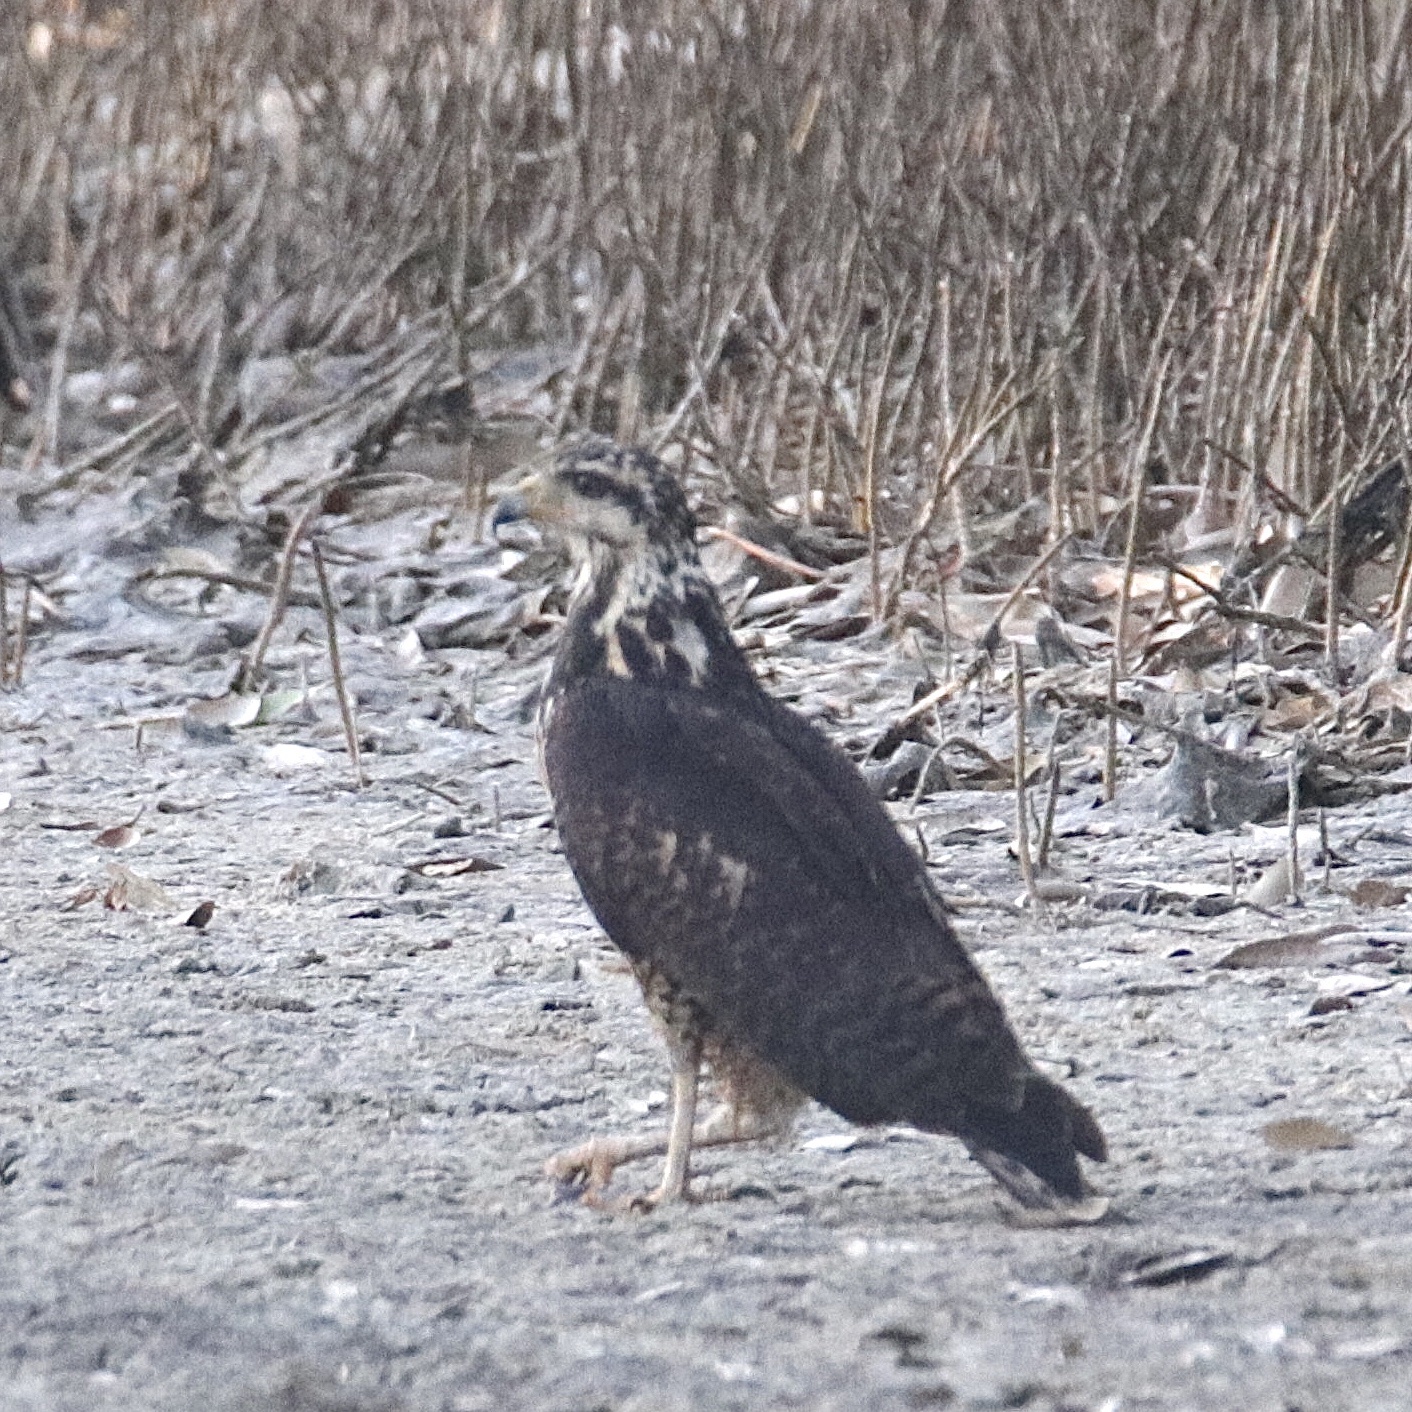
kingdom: Animalia
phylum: Chordata
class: Aves
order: Accipitriformes
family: Accipitridae
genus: Buteogallus
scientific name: Buteogallus anthracinus
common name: Common black hawk
